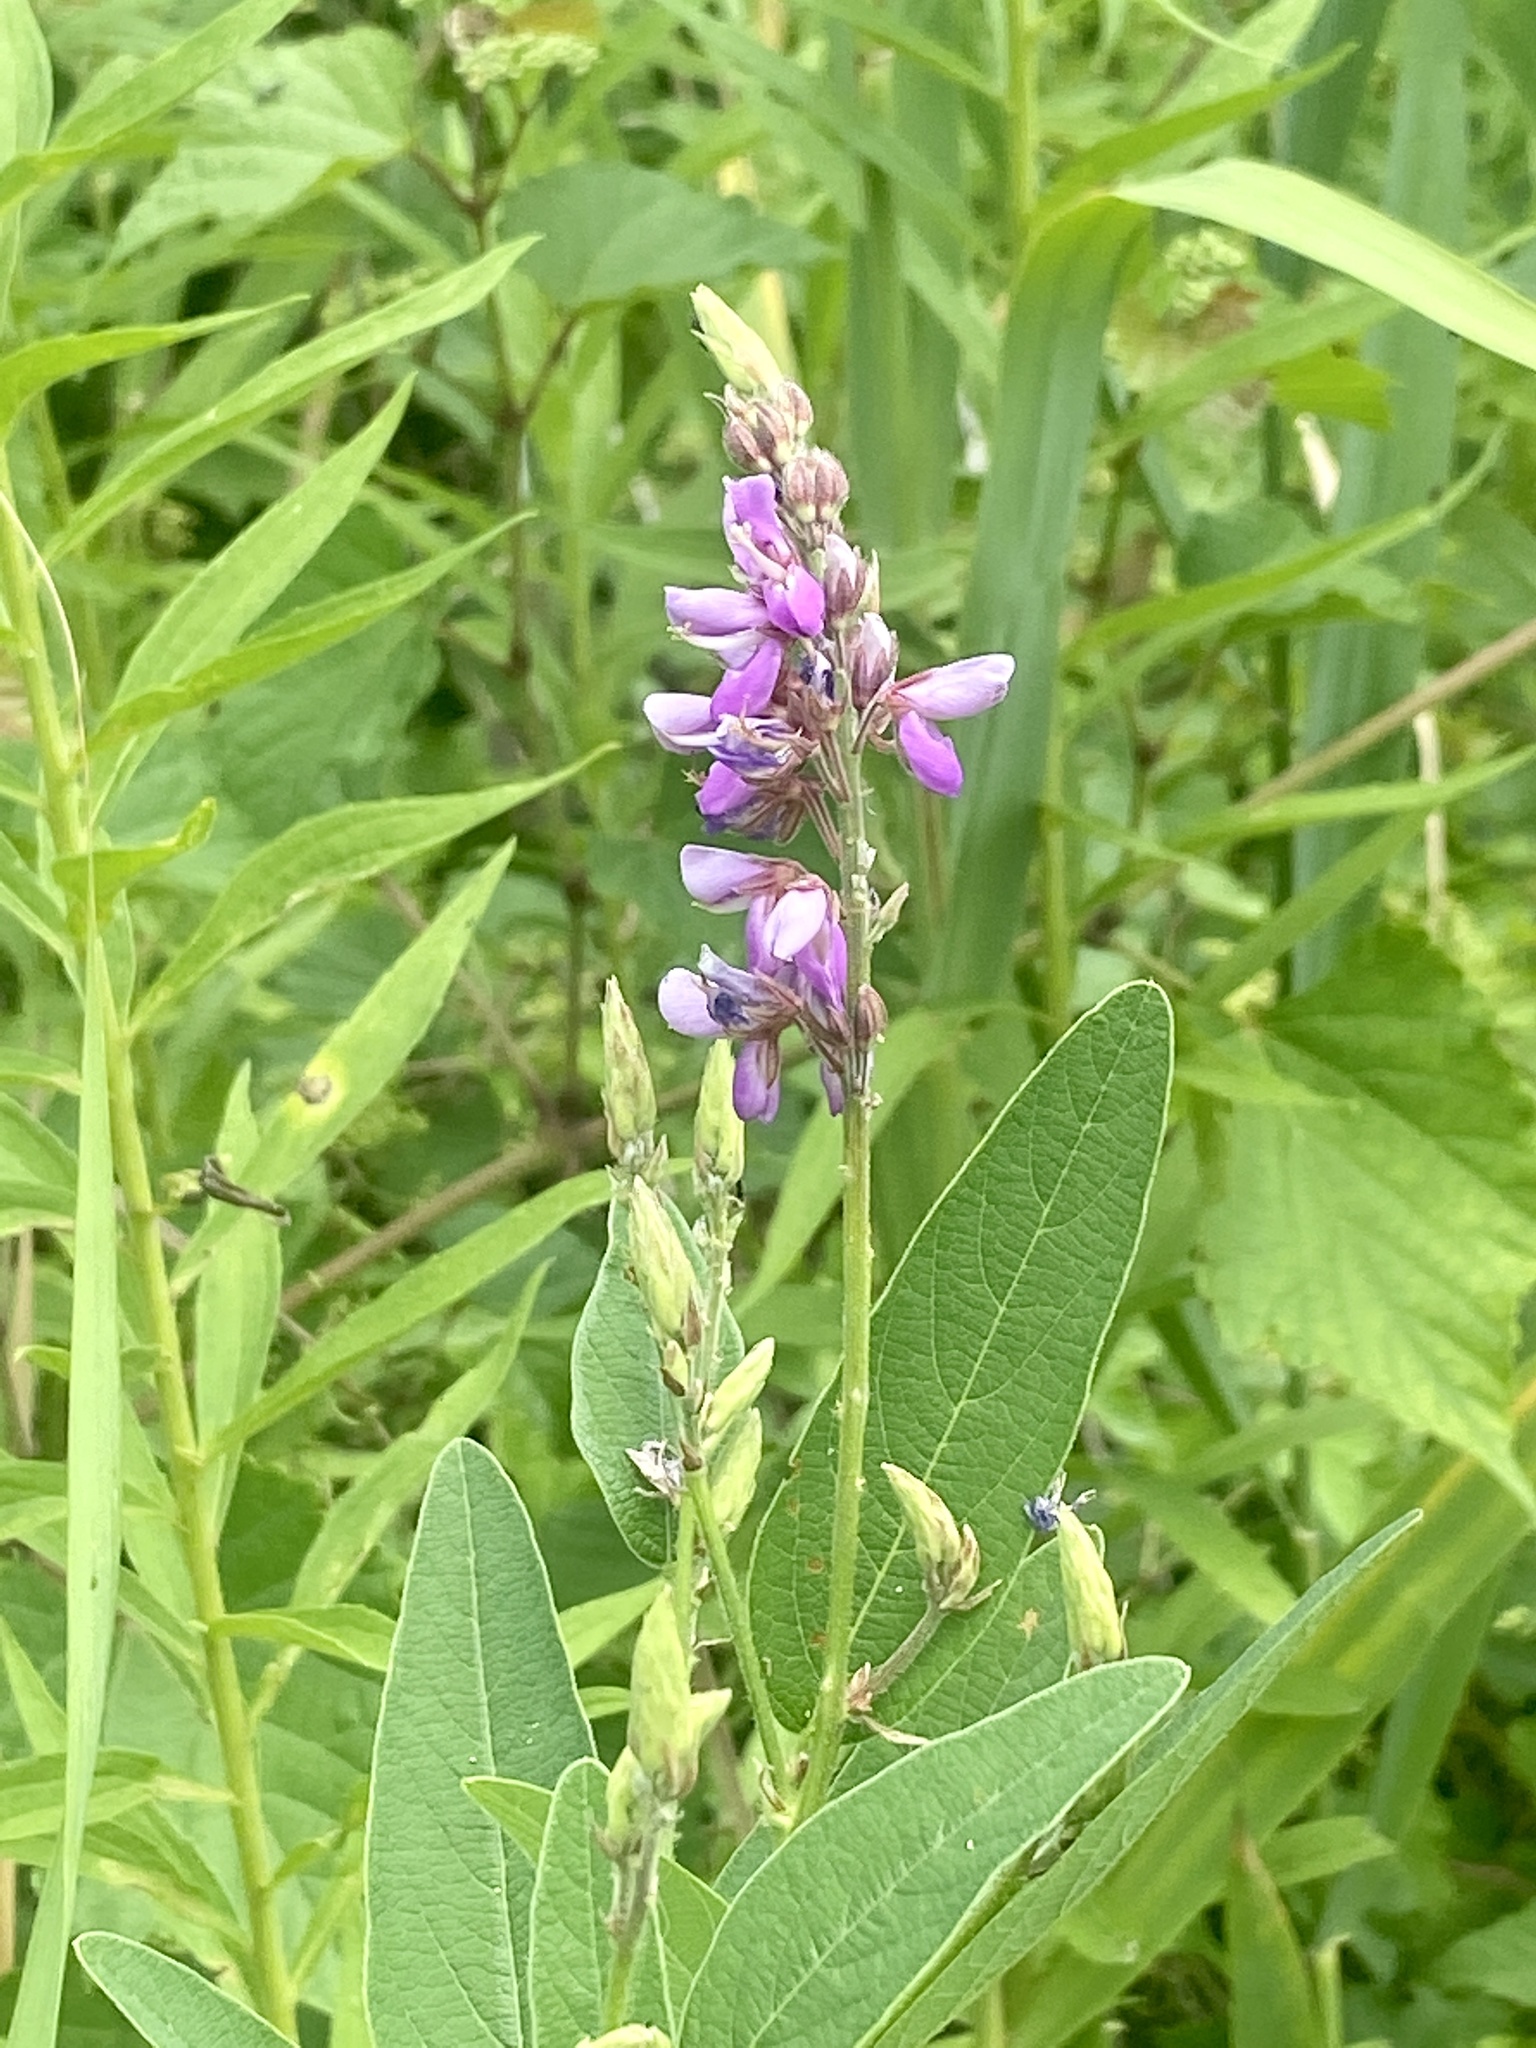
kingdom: Plantae
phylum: Tracheophyta
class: Magnoliopsida
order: Fabales
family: Fabaceae
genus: Desmodium
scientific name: Desmodium canadense
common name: Canada tick-trefoil
